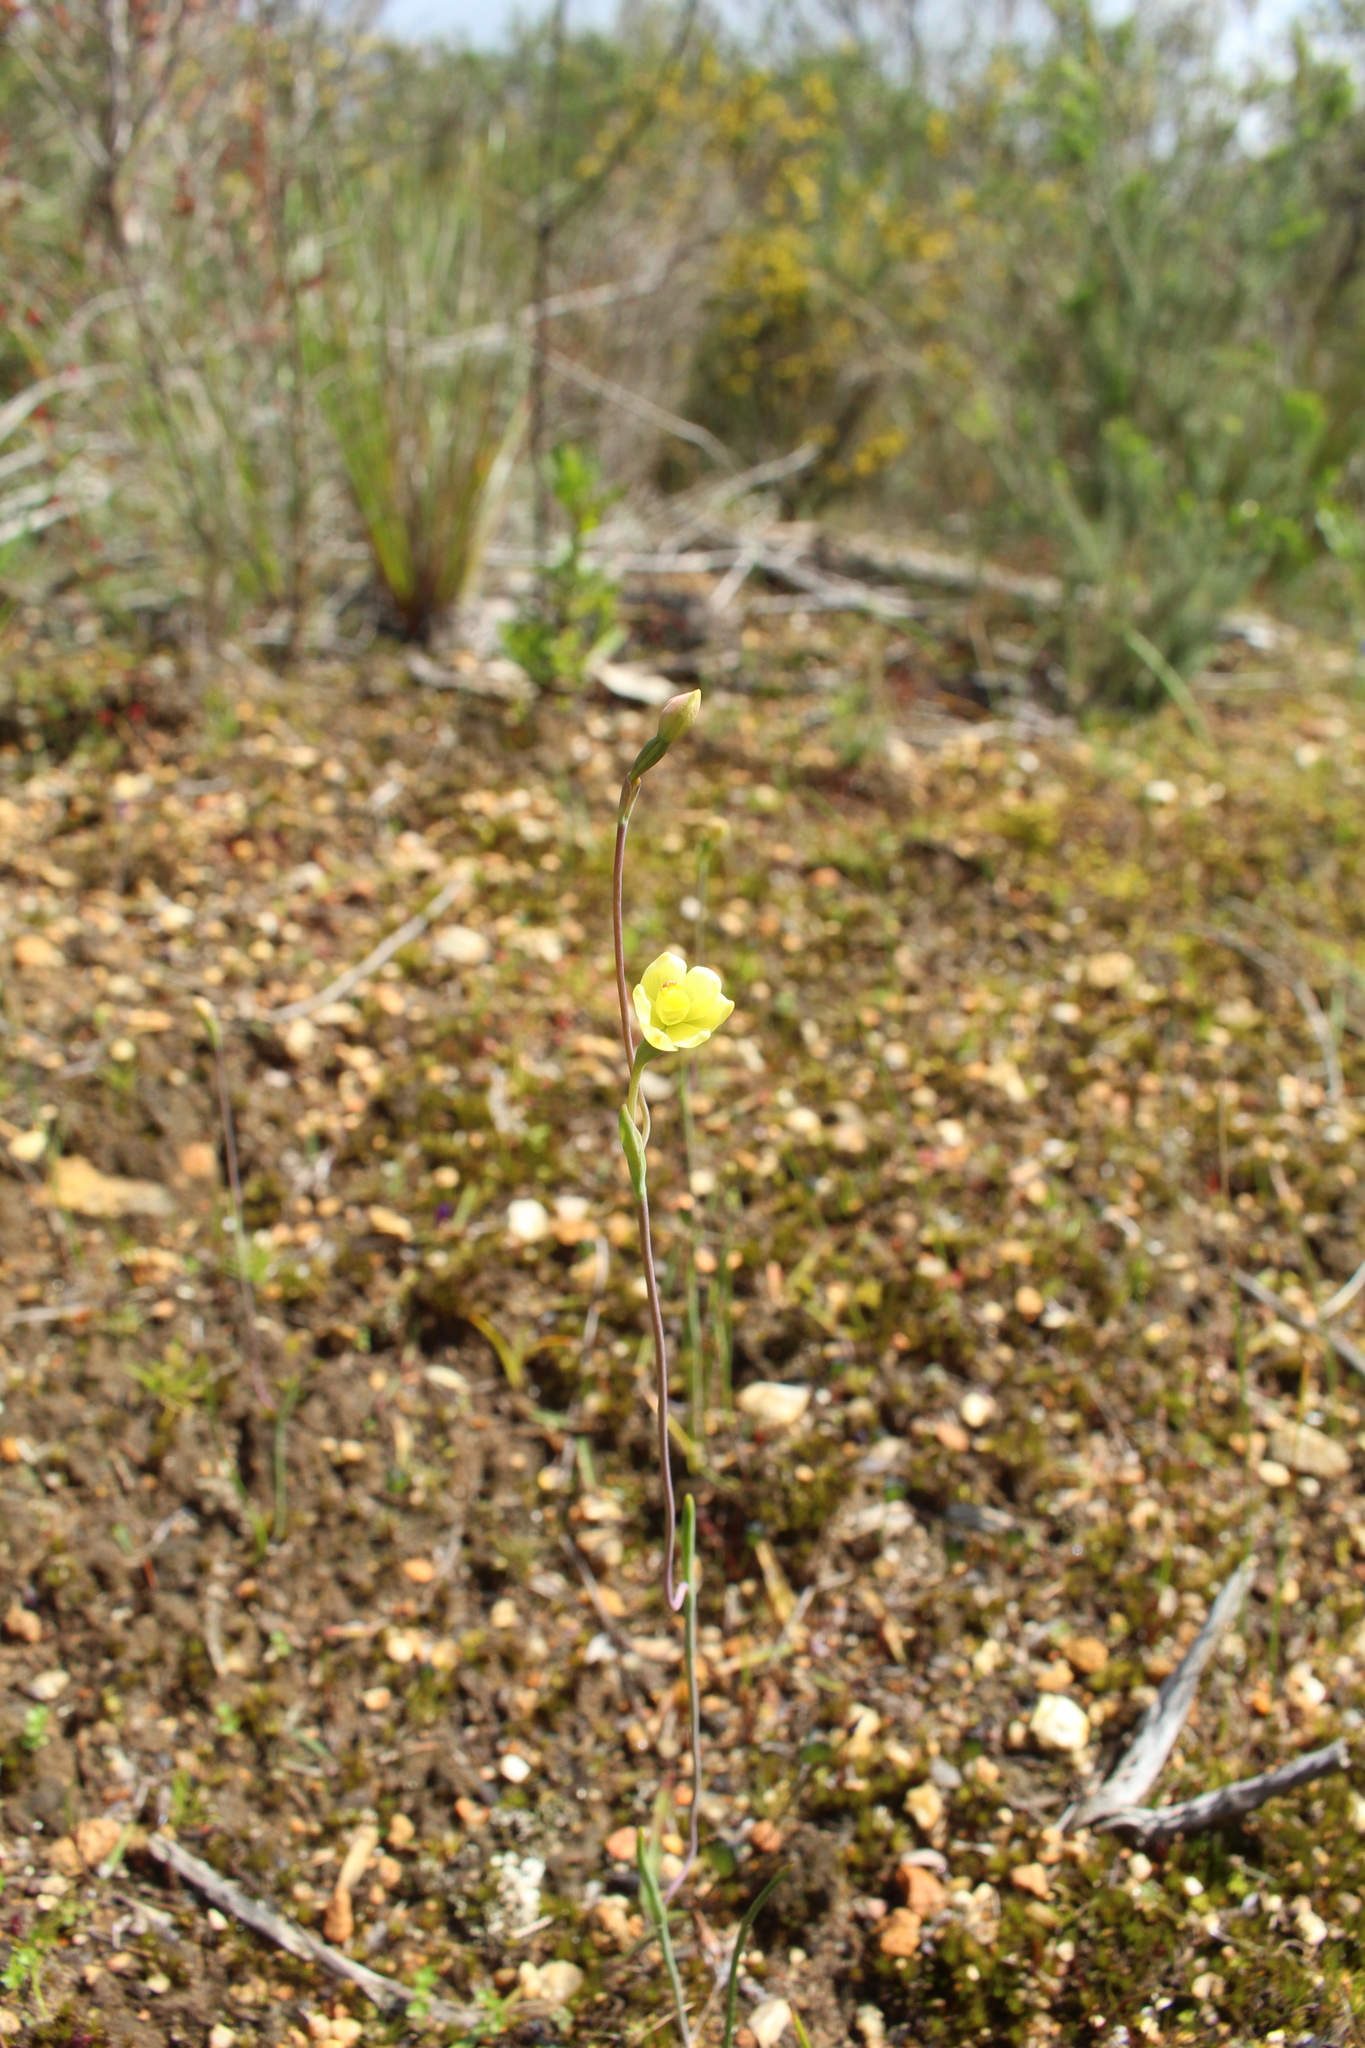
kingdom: Plantae
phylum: Tracheophyta
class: Liliopsida
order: Asparagales
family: Orchidaceae
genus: Thelymitra
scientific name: Thelymitra flexuosa
